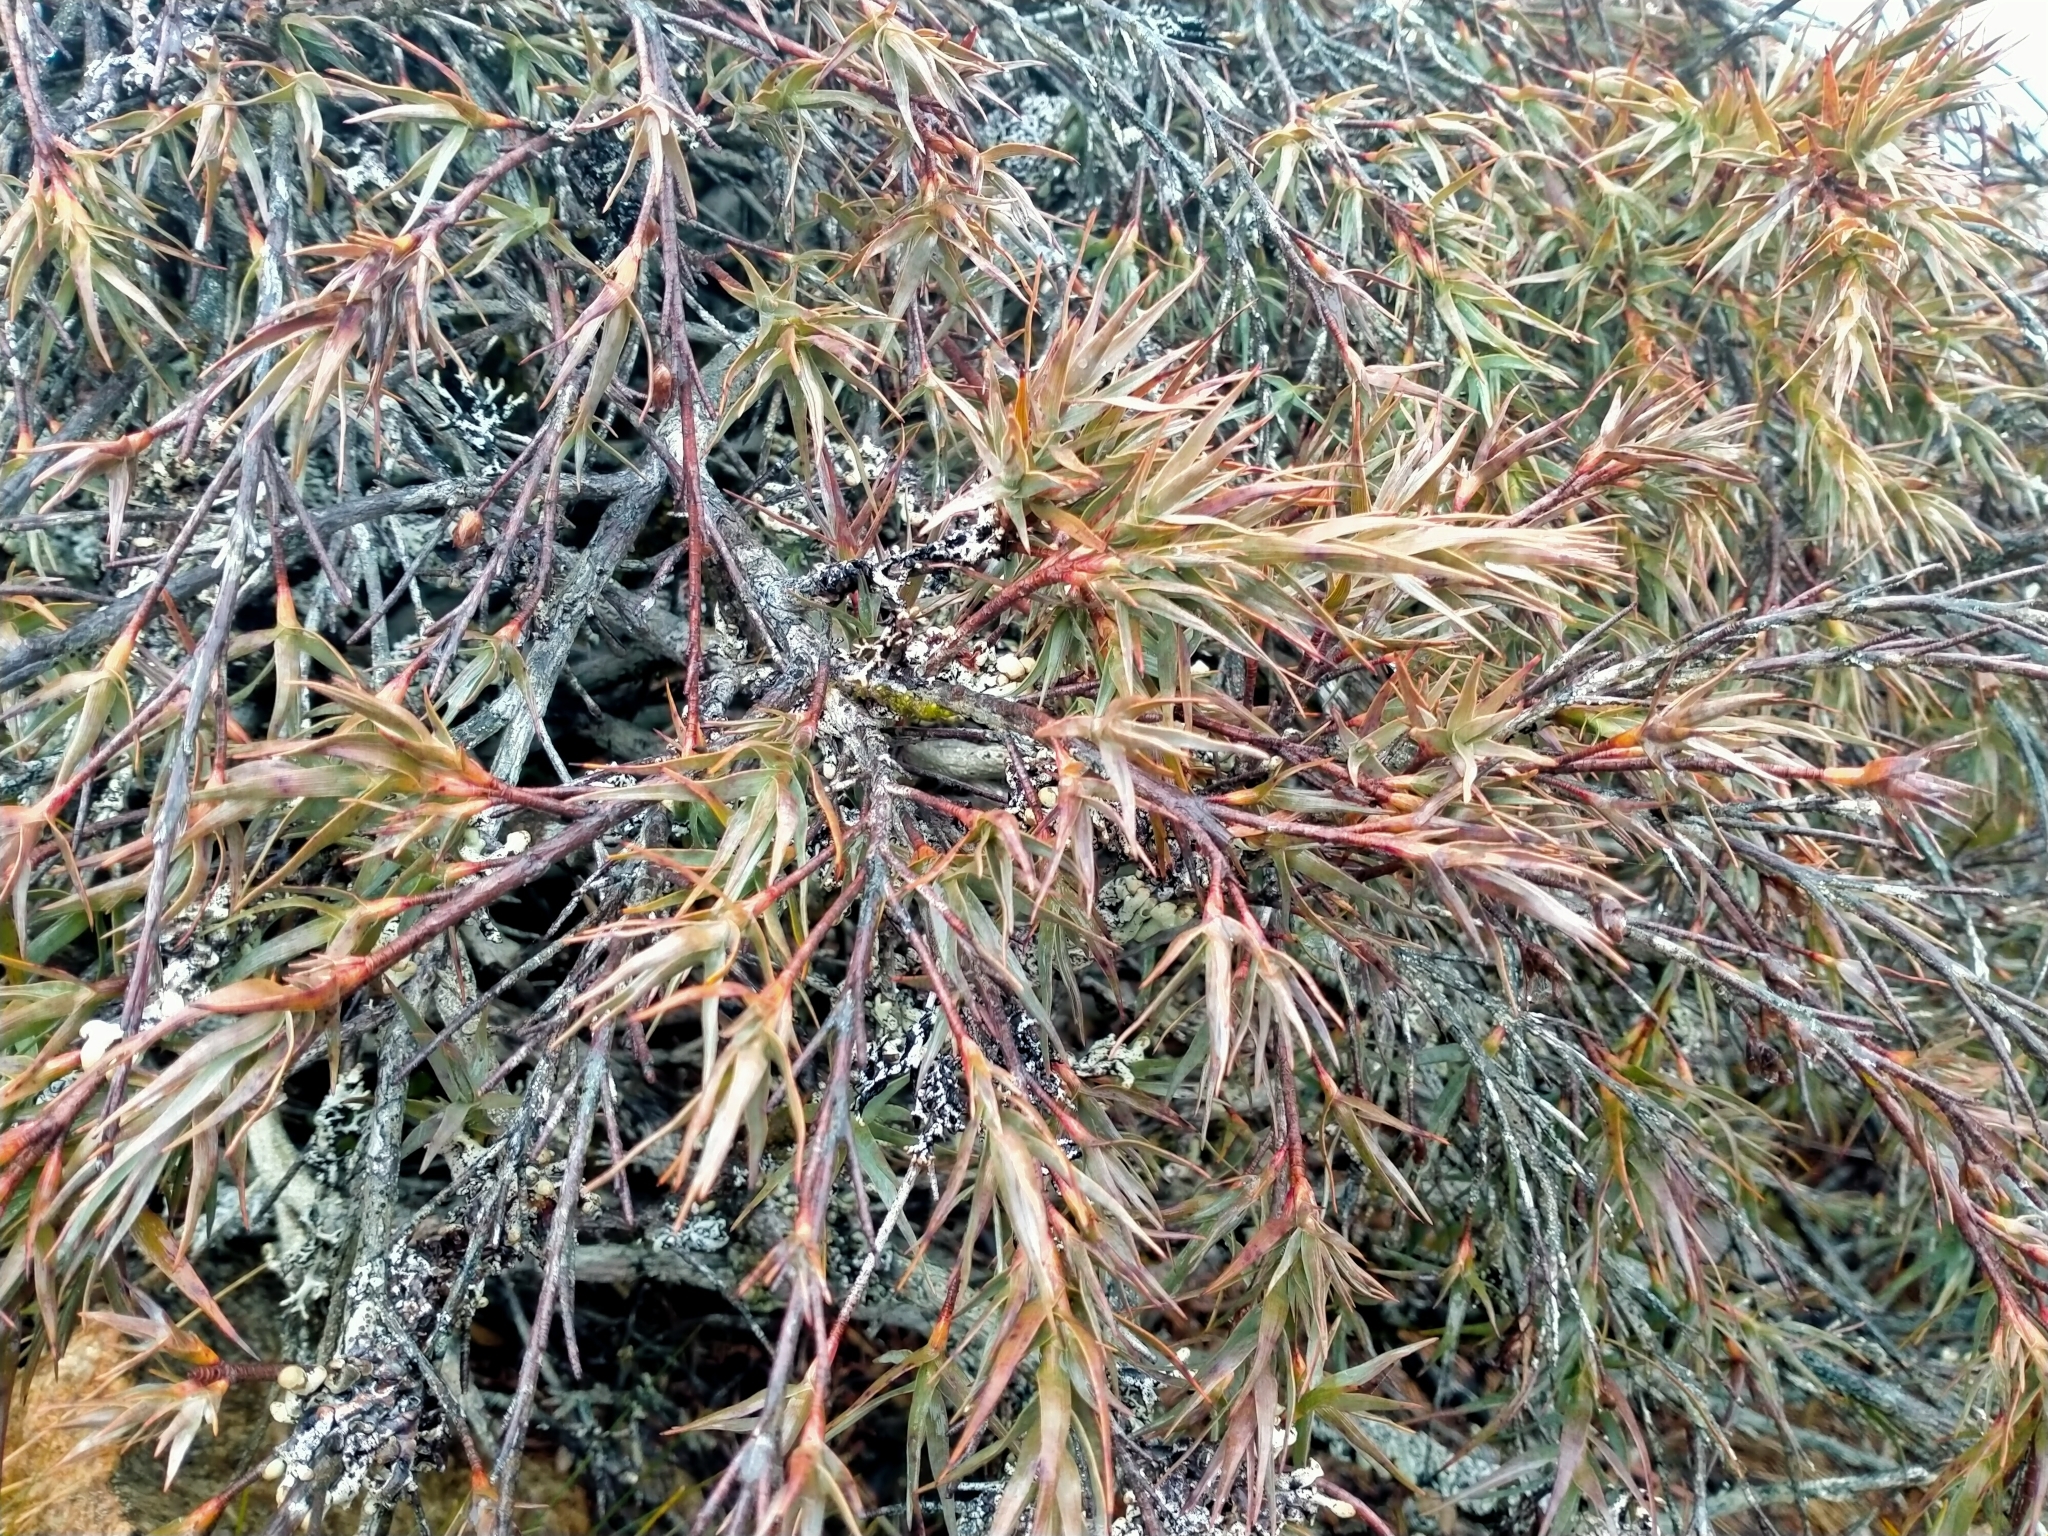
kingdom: Plantae
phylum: Tracheophyta
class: Magnoliopsida
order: Ericales
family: Ericaceae
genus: Dracophyllum
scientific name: Dracophyllum pubescens
